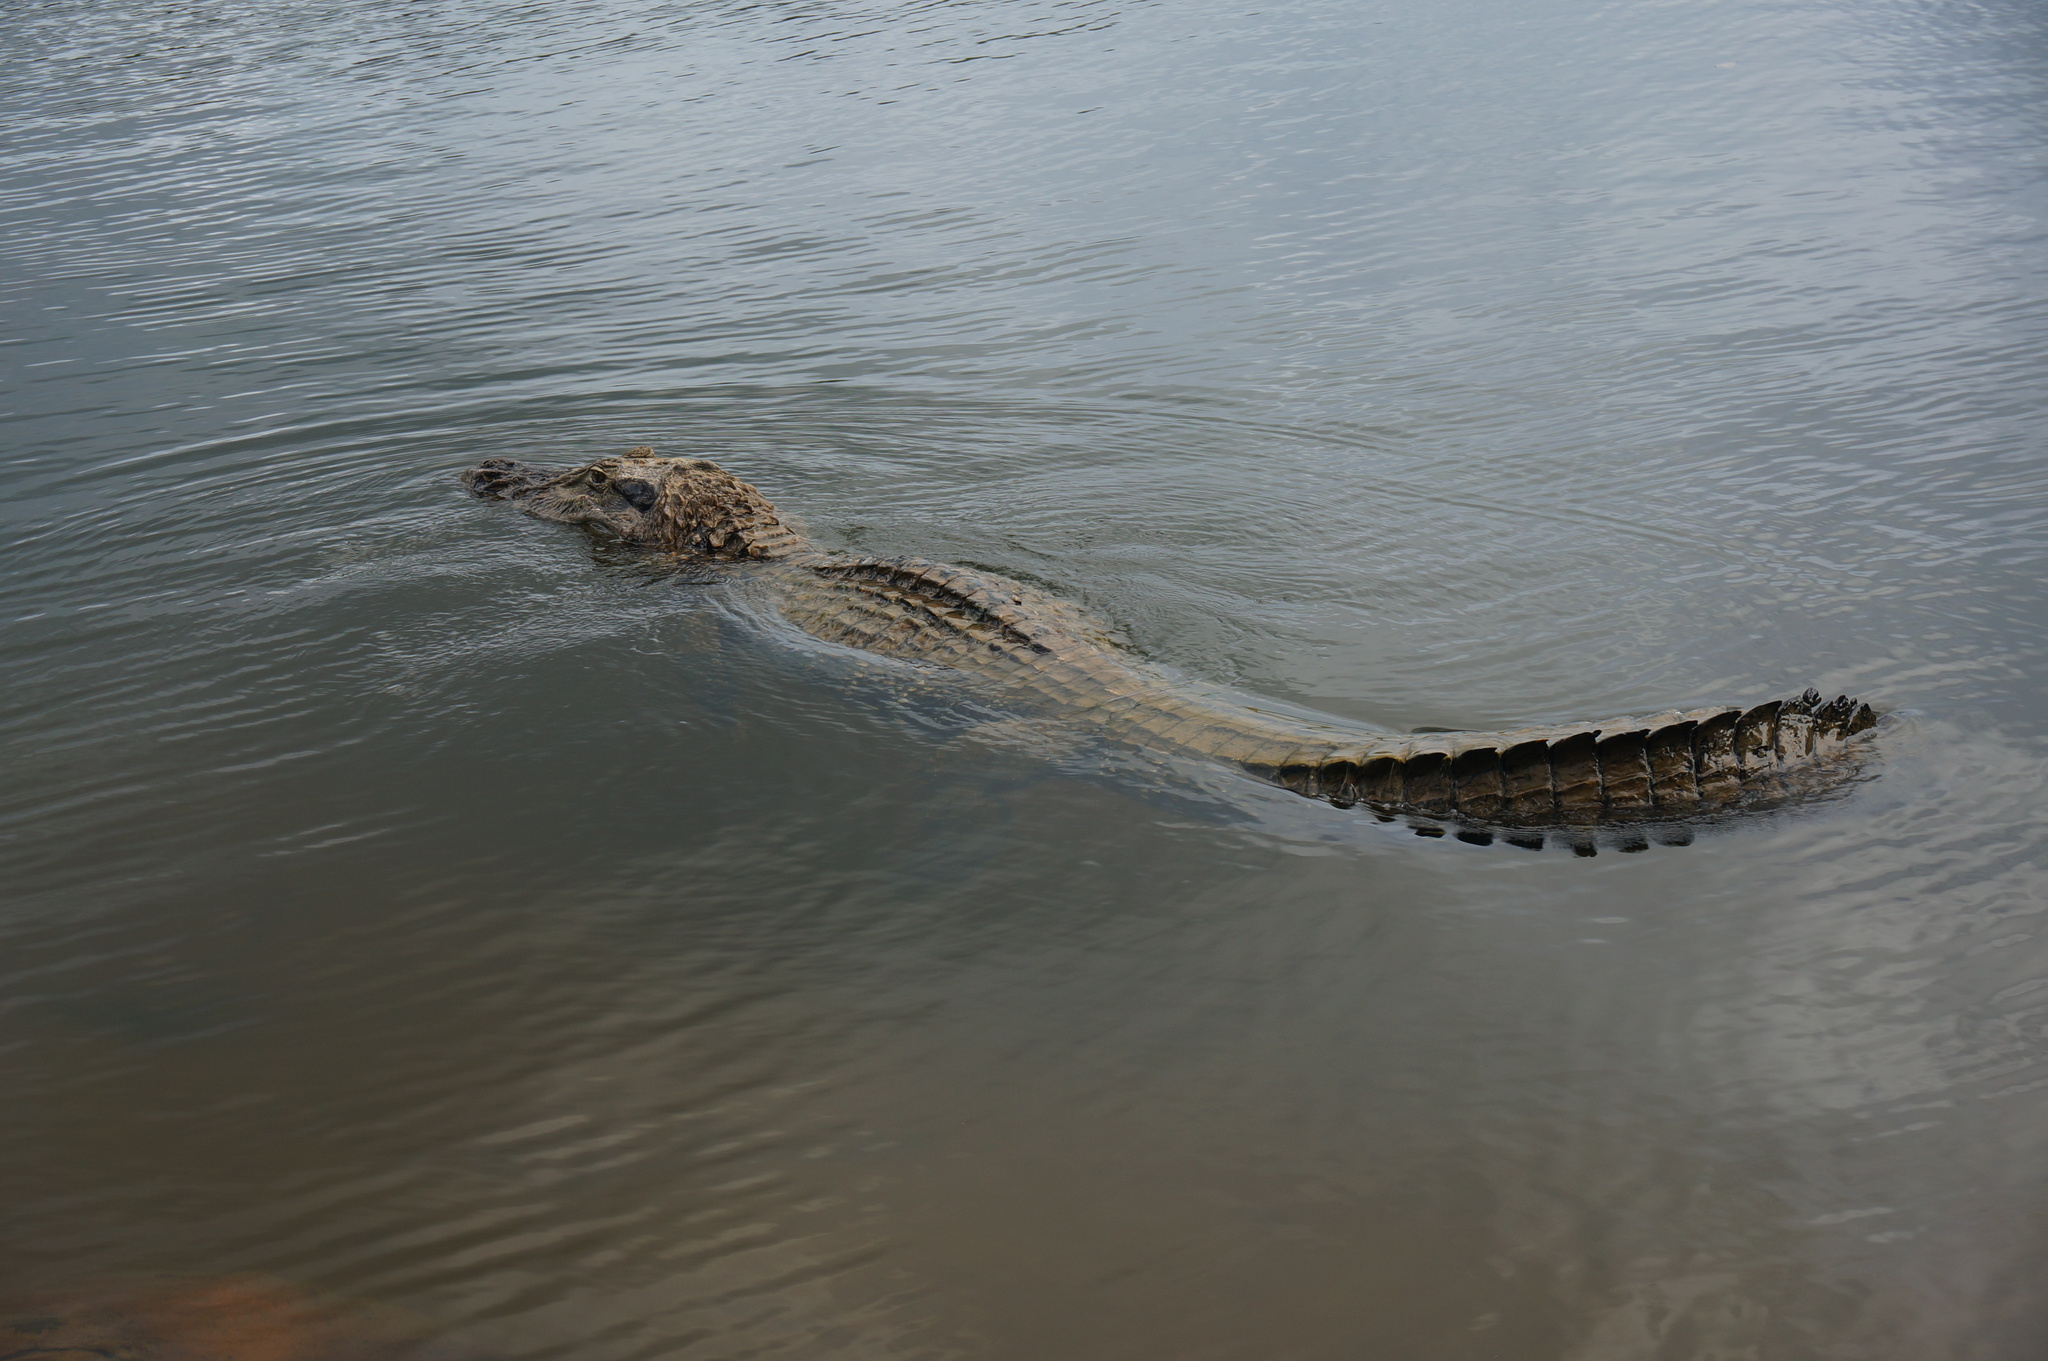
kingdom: Animalia
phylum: Chordata
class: Crocodylia
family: Alligatoridae
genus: Melanosuchus
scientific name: Melanosuchus niger
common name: Black caiman
